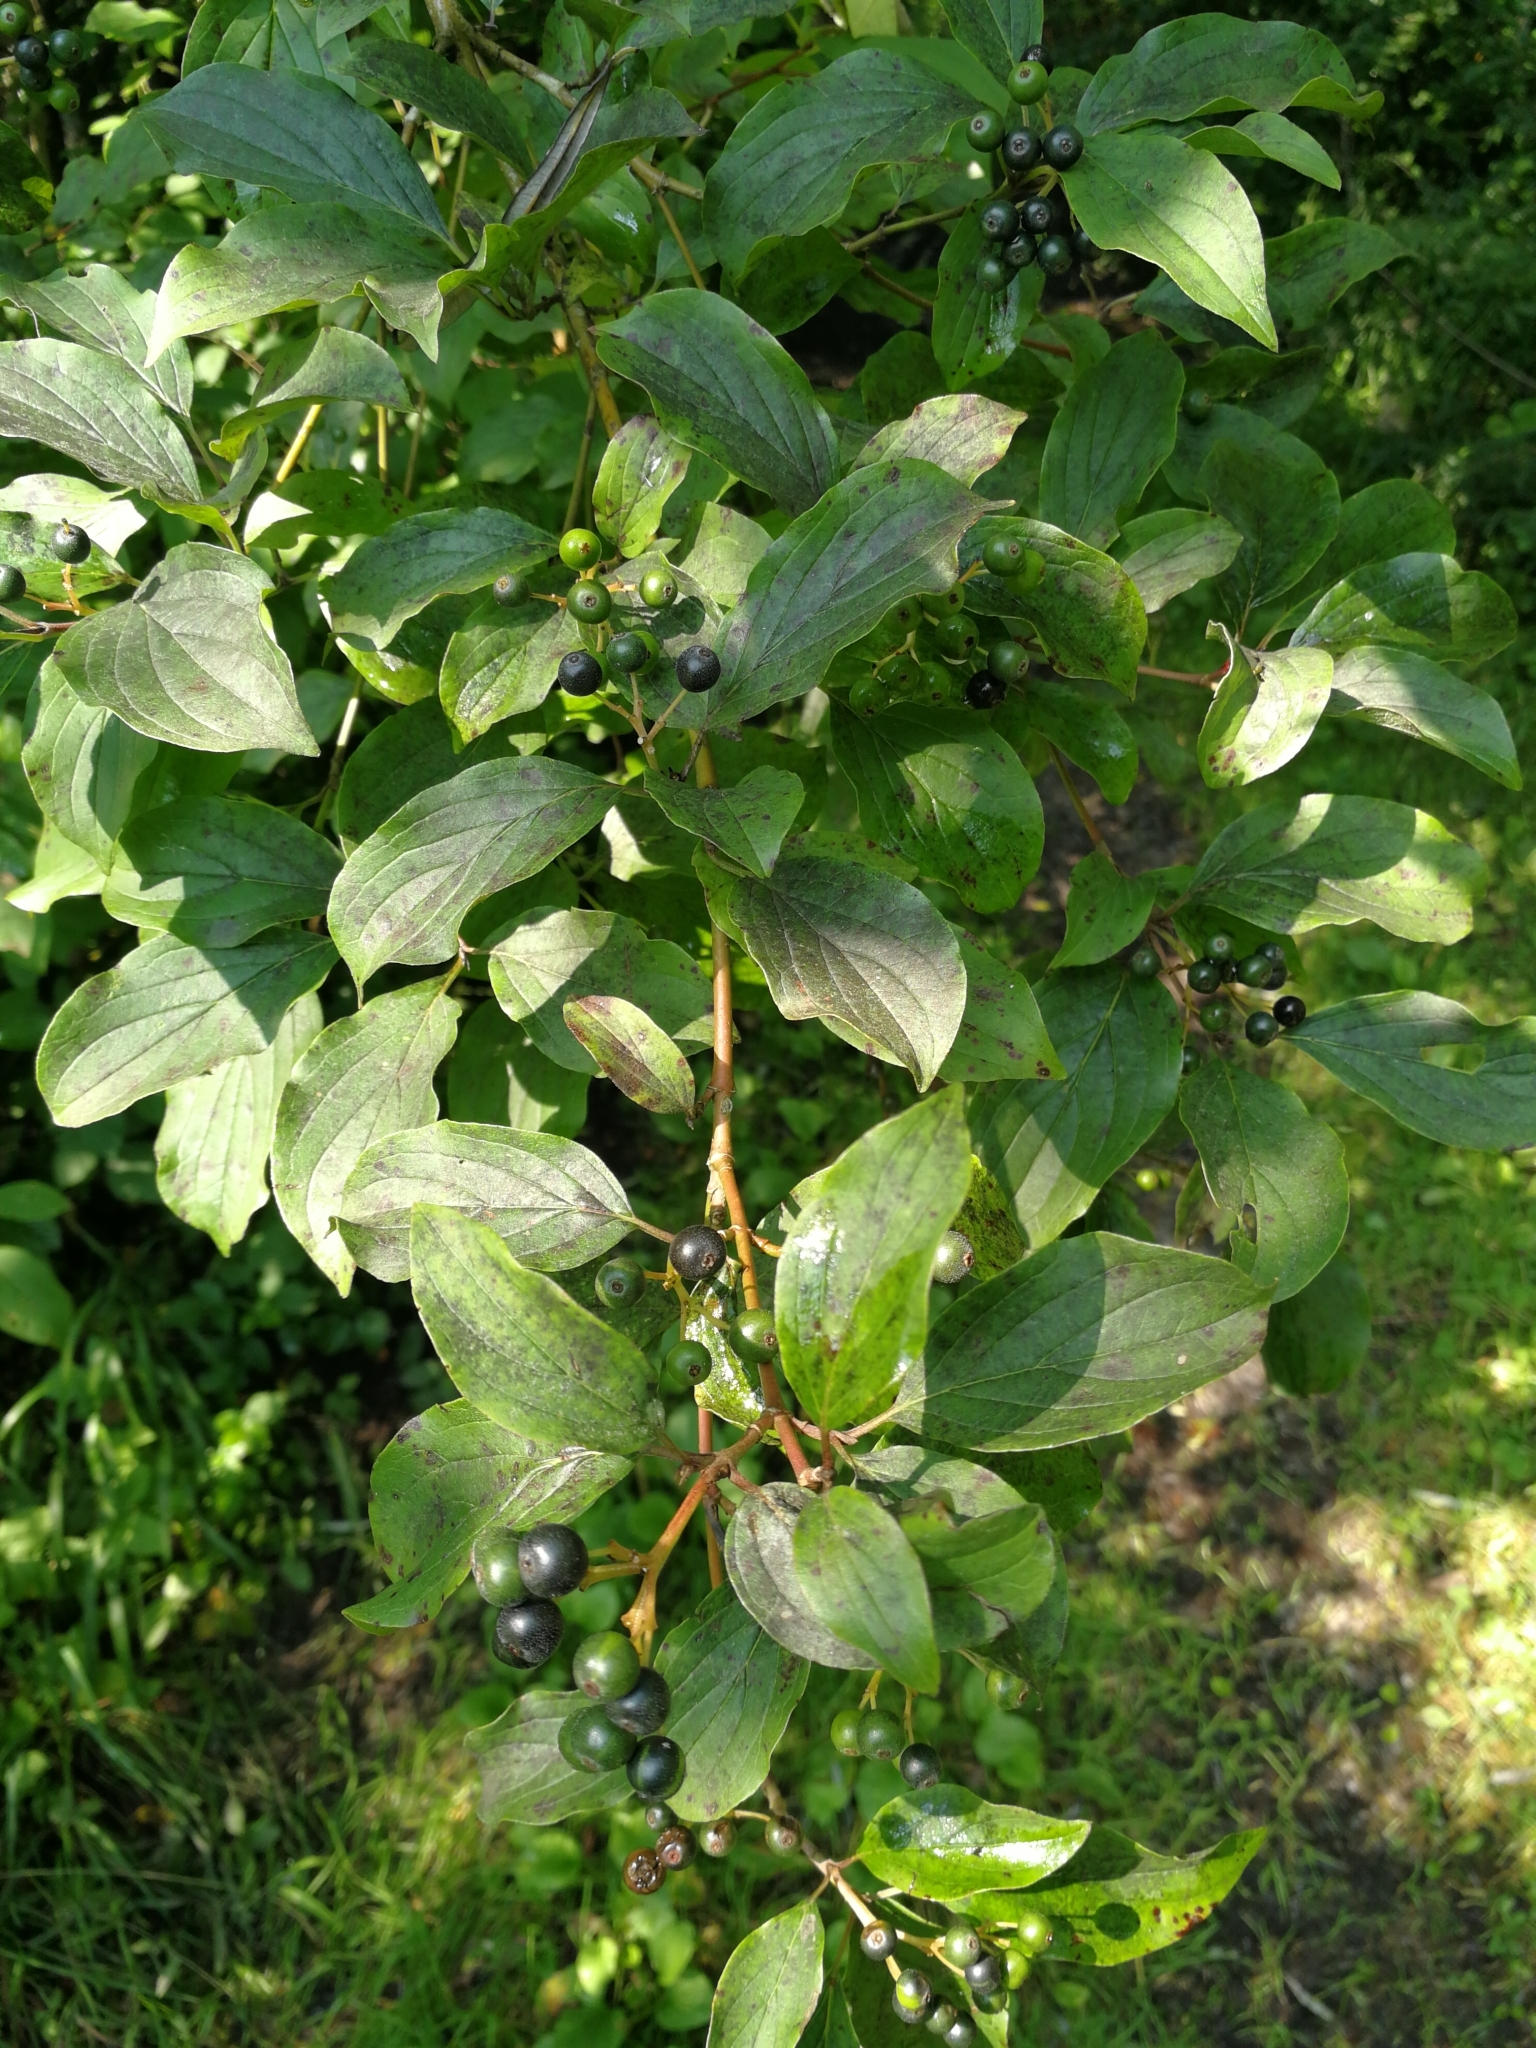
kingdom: Plantae
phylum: Tracheophyta
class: Magnoliopsida
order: Cornales
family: Cornaceae
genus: Cornus
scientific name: Cornus sanguinea
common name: Dogwood
